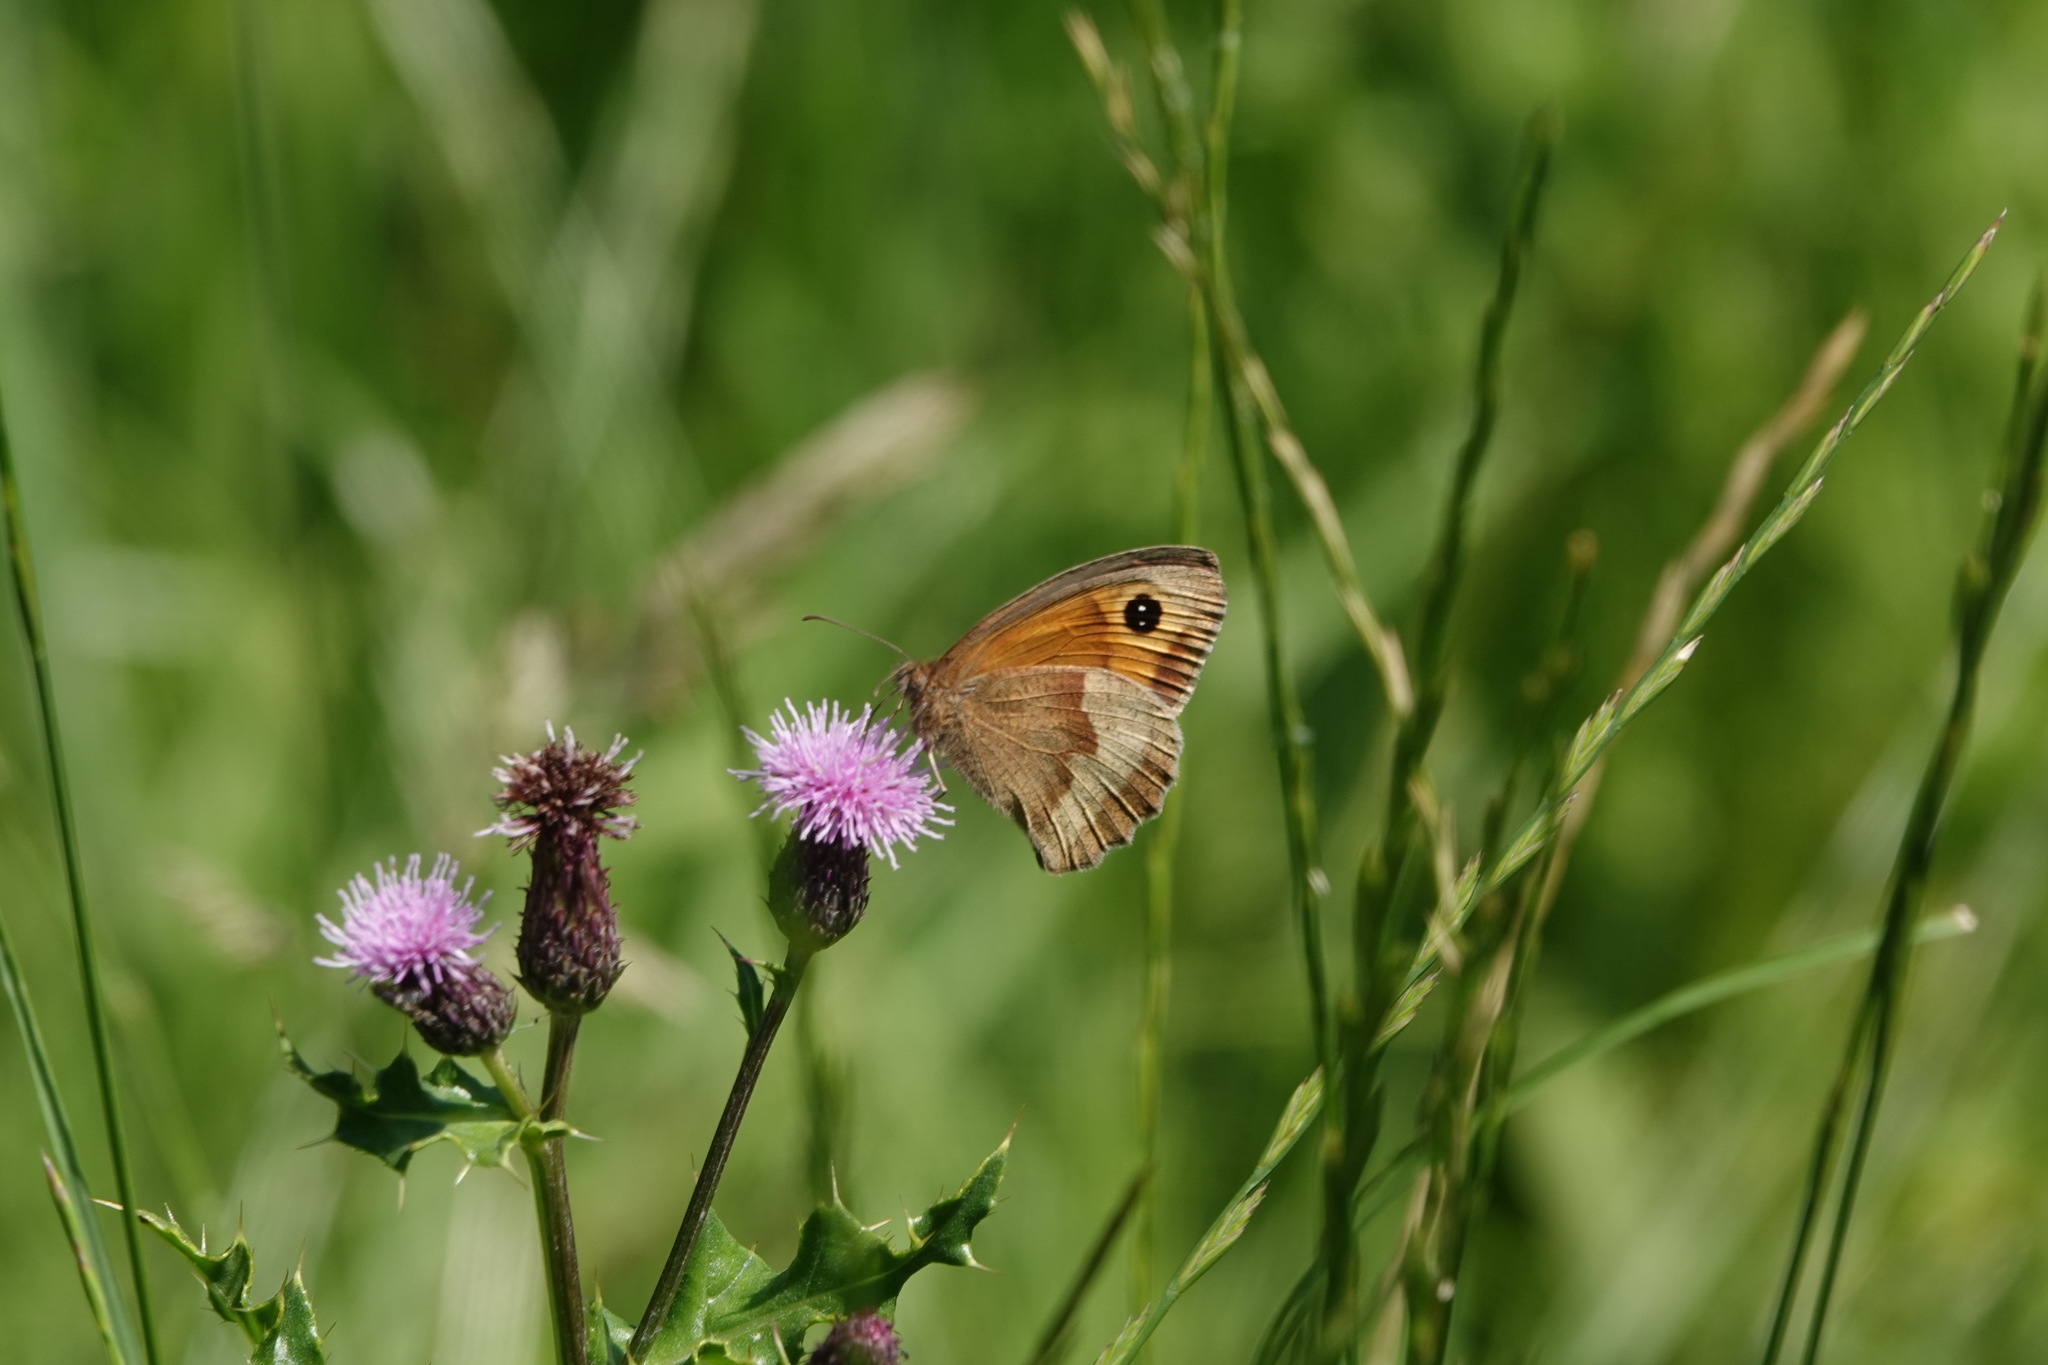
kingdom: Animalia
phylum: Arthropoda
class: Insecta
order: Lepidoptera
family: Nymphalidae
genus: Maniola
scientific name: Maniola jurtina
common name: Meadow brown
